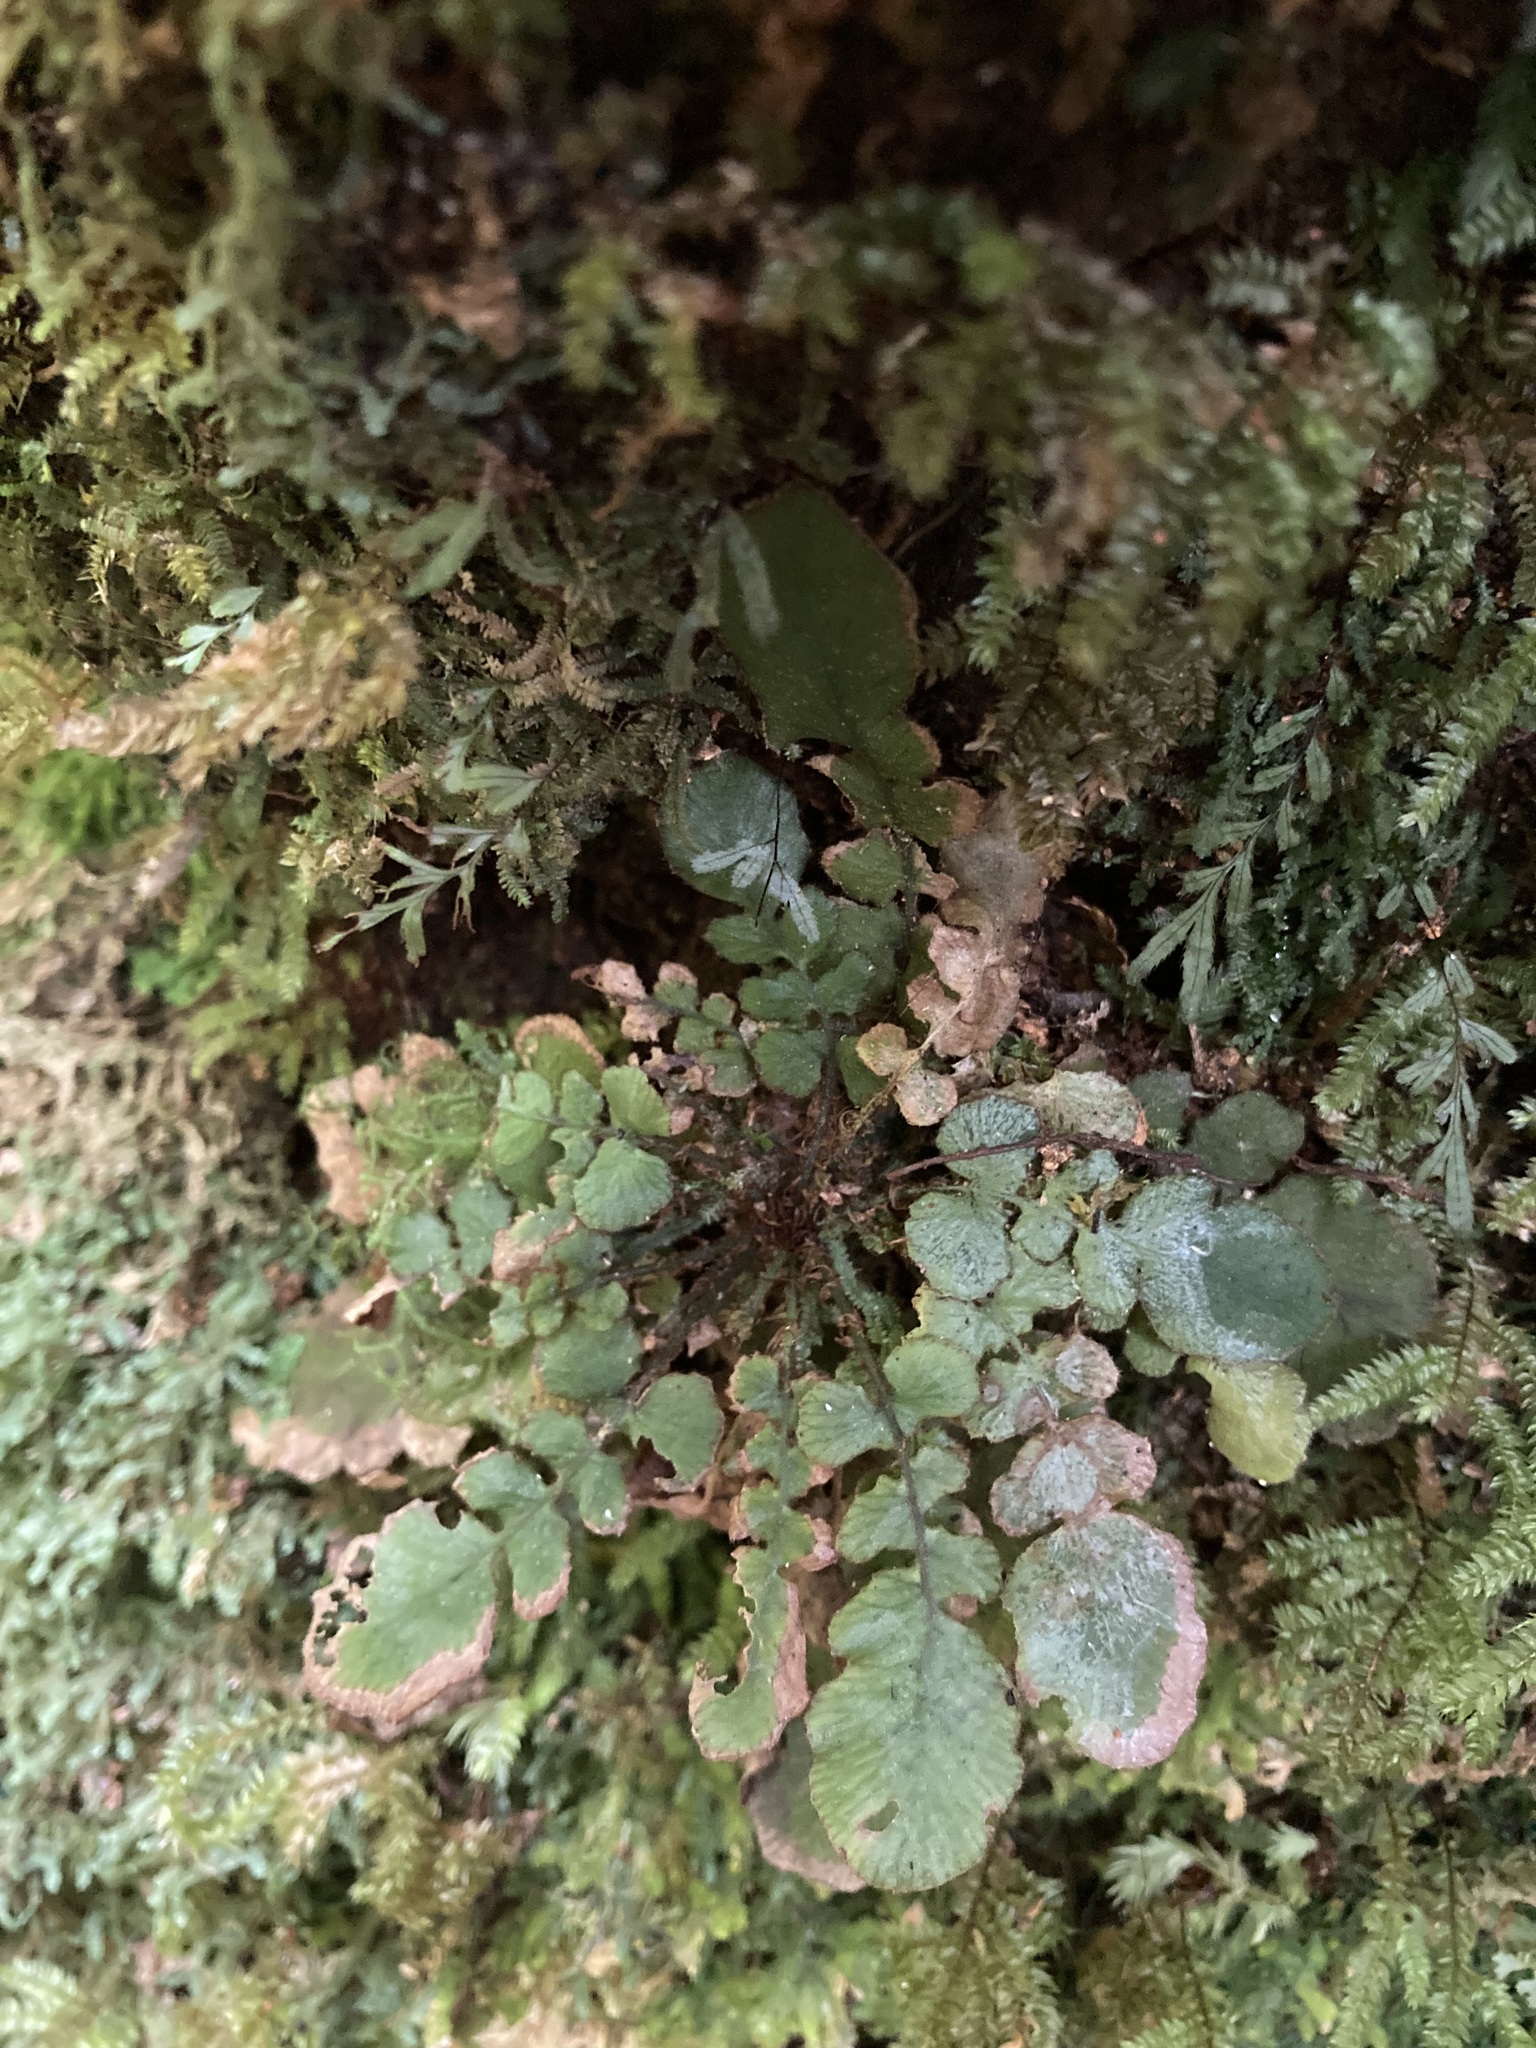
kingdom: Plantae
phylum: Tracheophyta
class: Polypodiopsida
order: Polypodiales
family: Blechnaceae
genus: Cranfillia
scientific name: Cranfillia nigra
